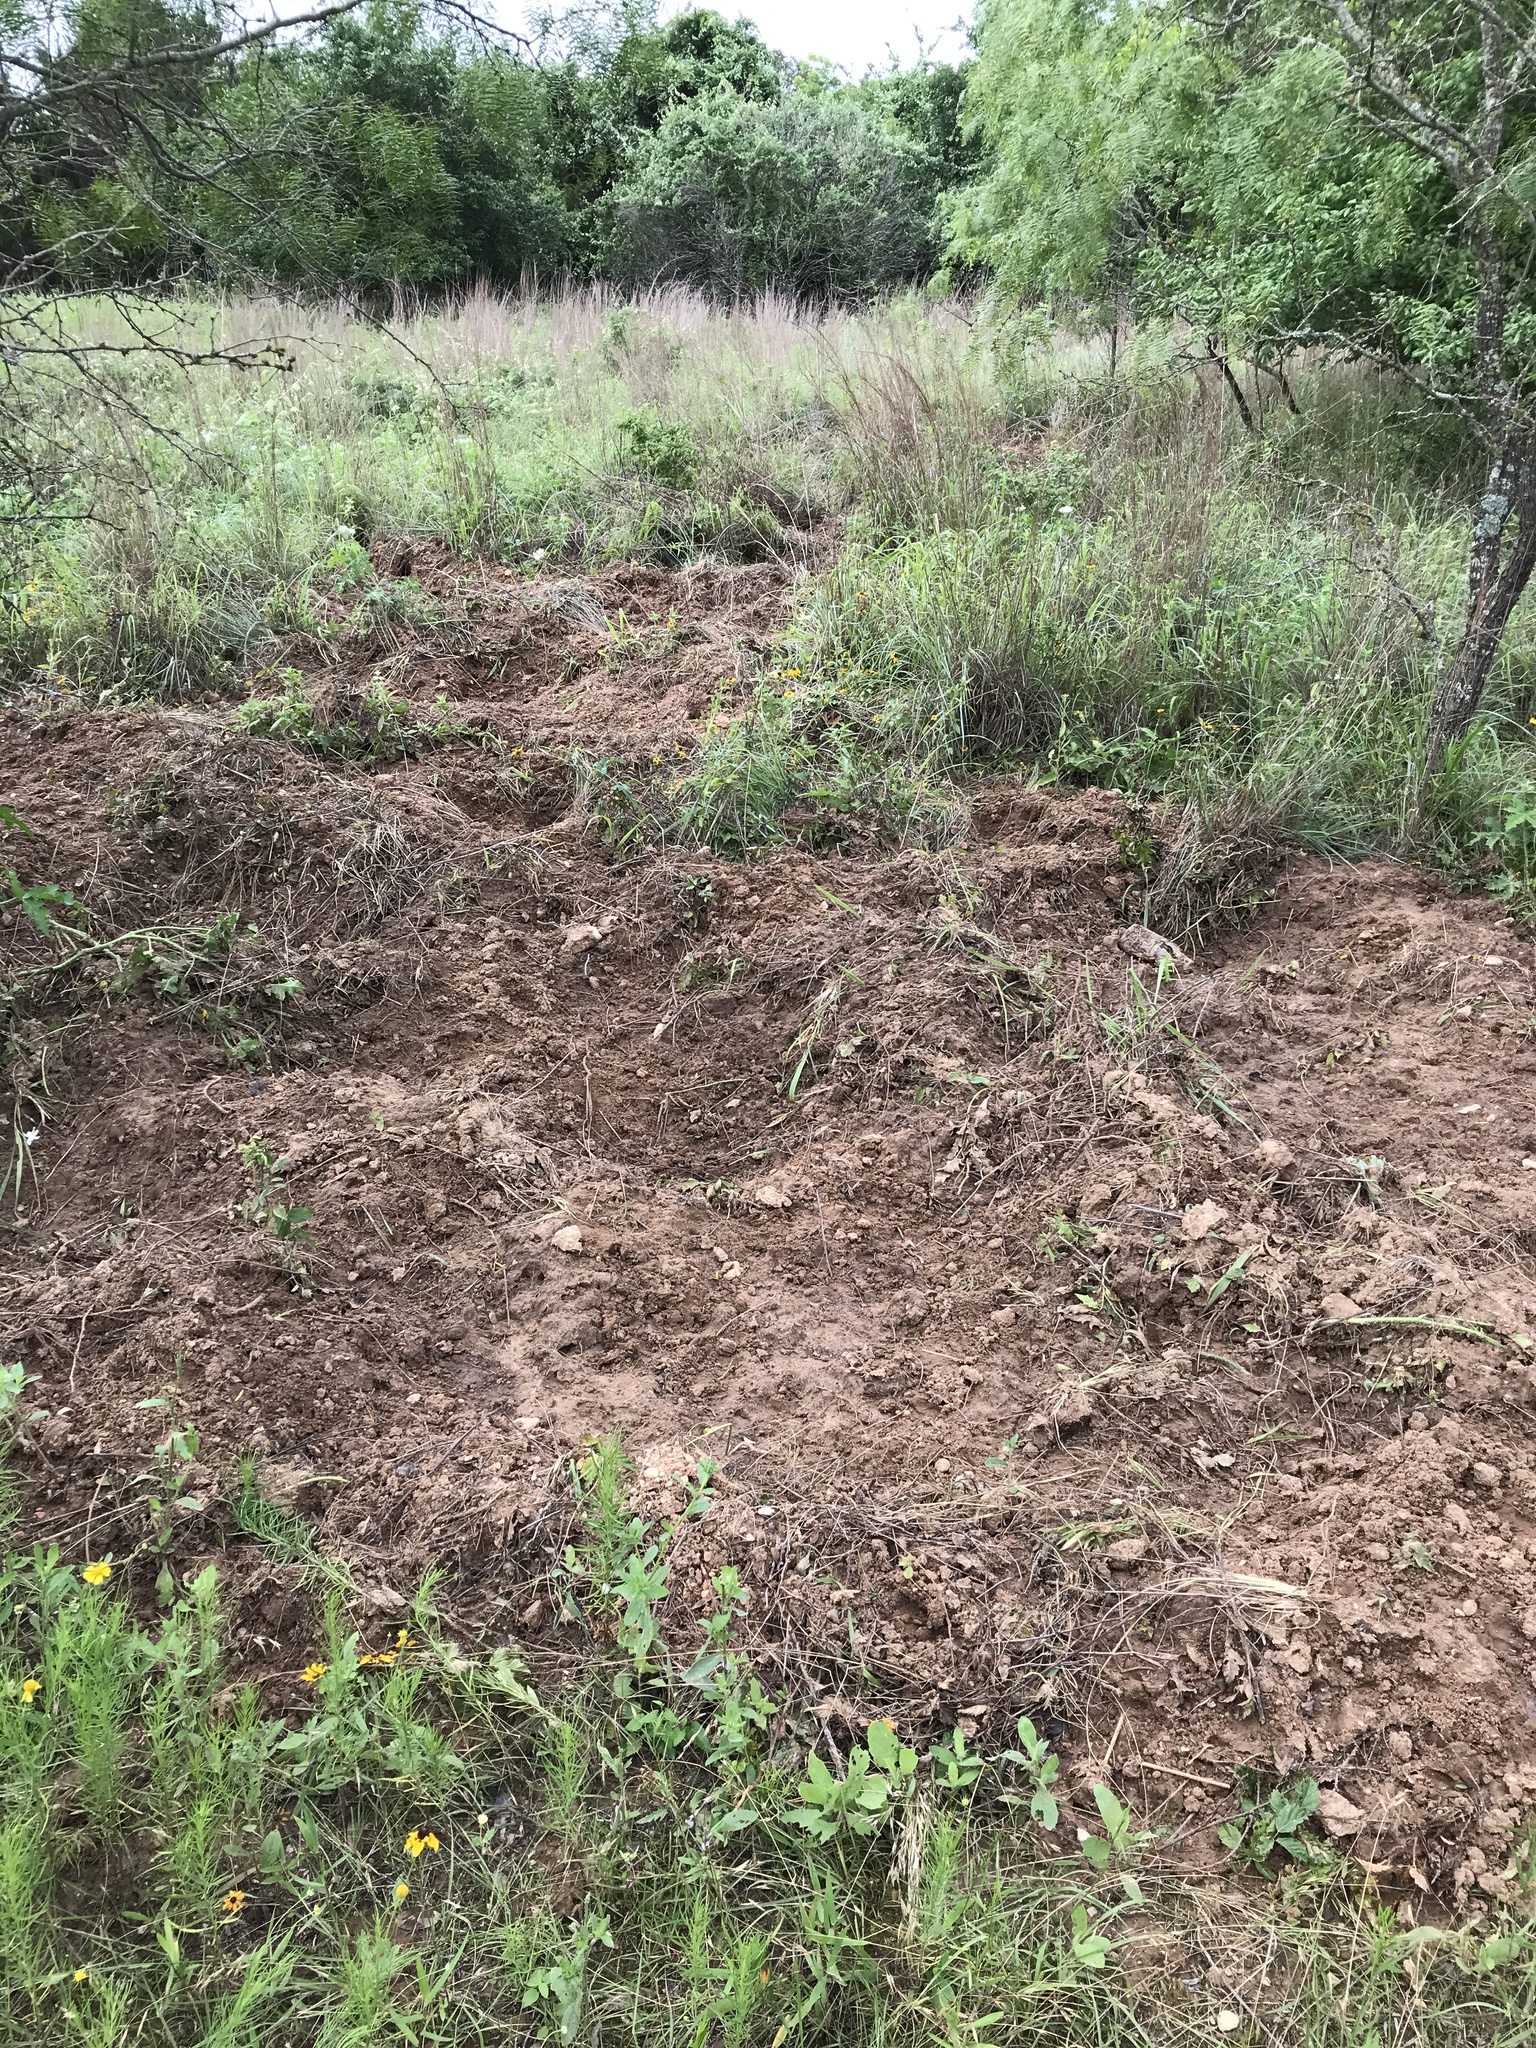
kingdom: Animalia
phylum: Chordata
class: Mammalia
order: Artiodactyla
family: Suidae
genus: Sus
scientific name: Sus scrofa
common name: Wild boar
